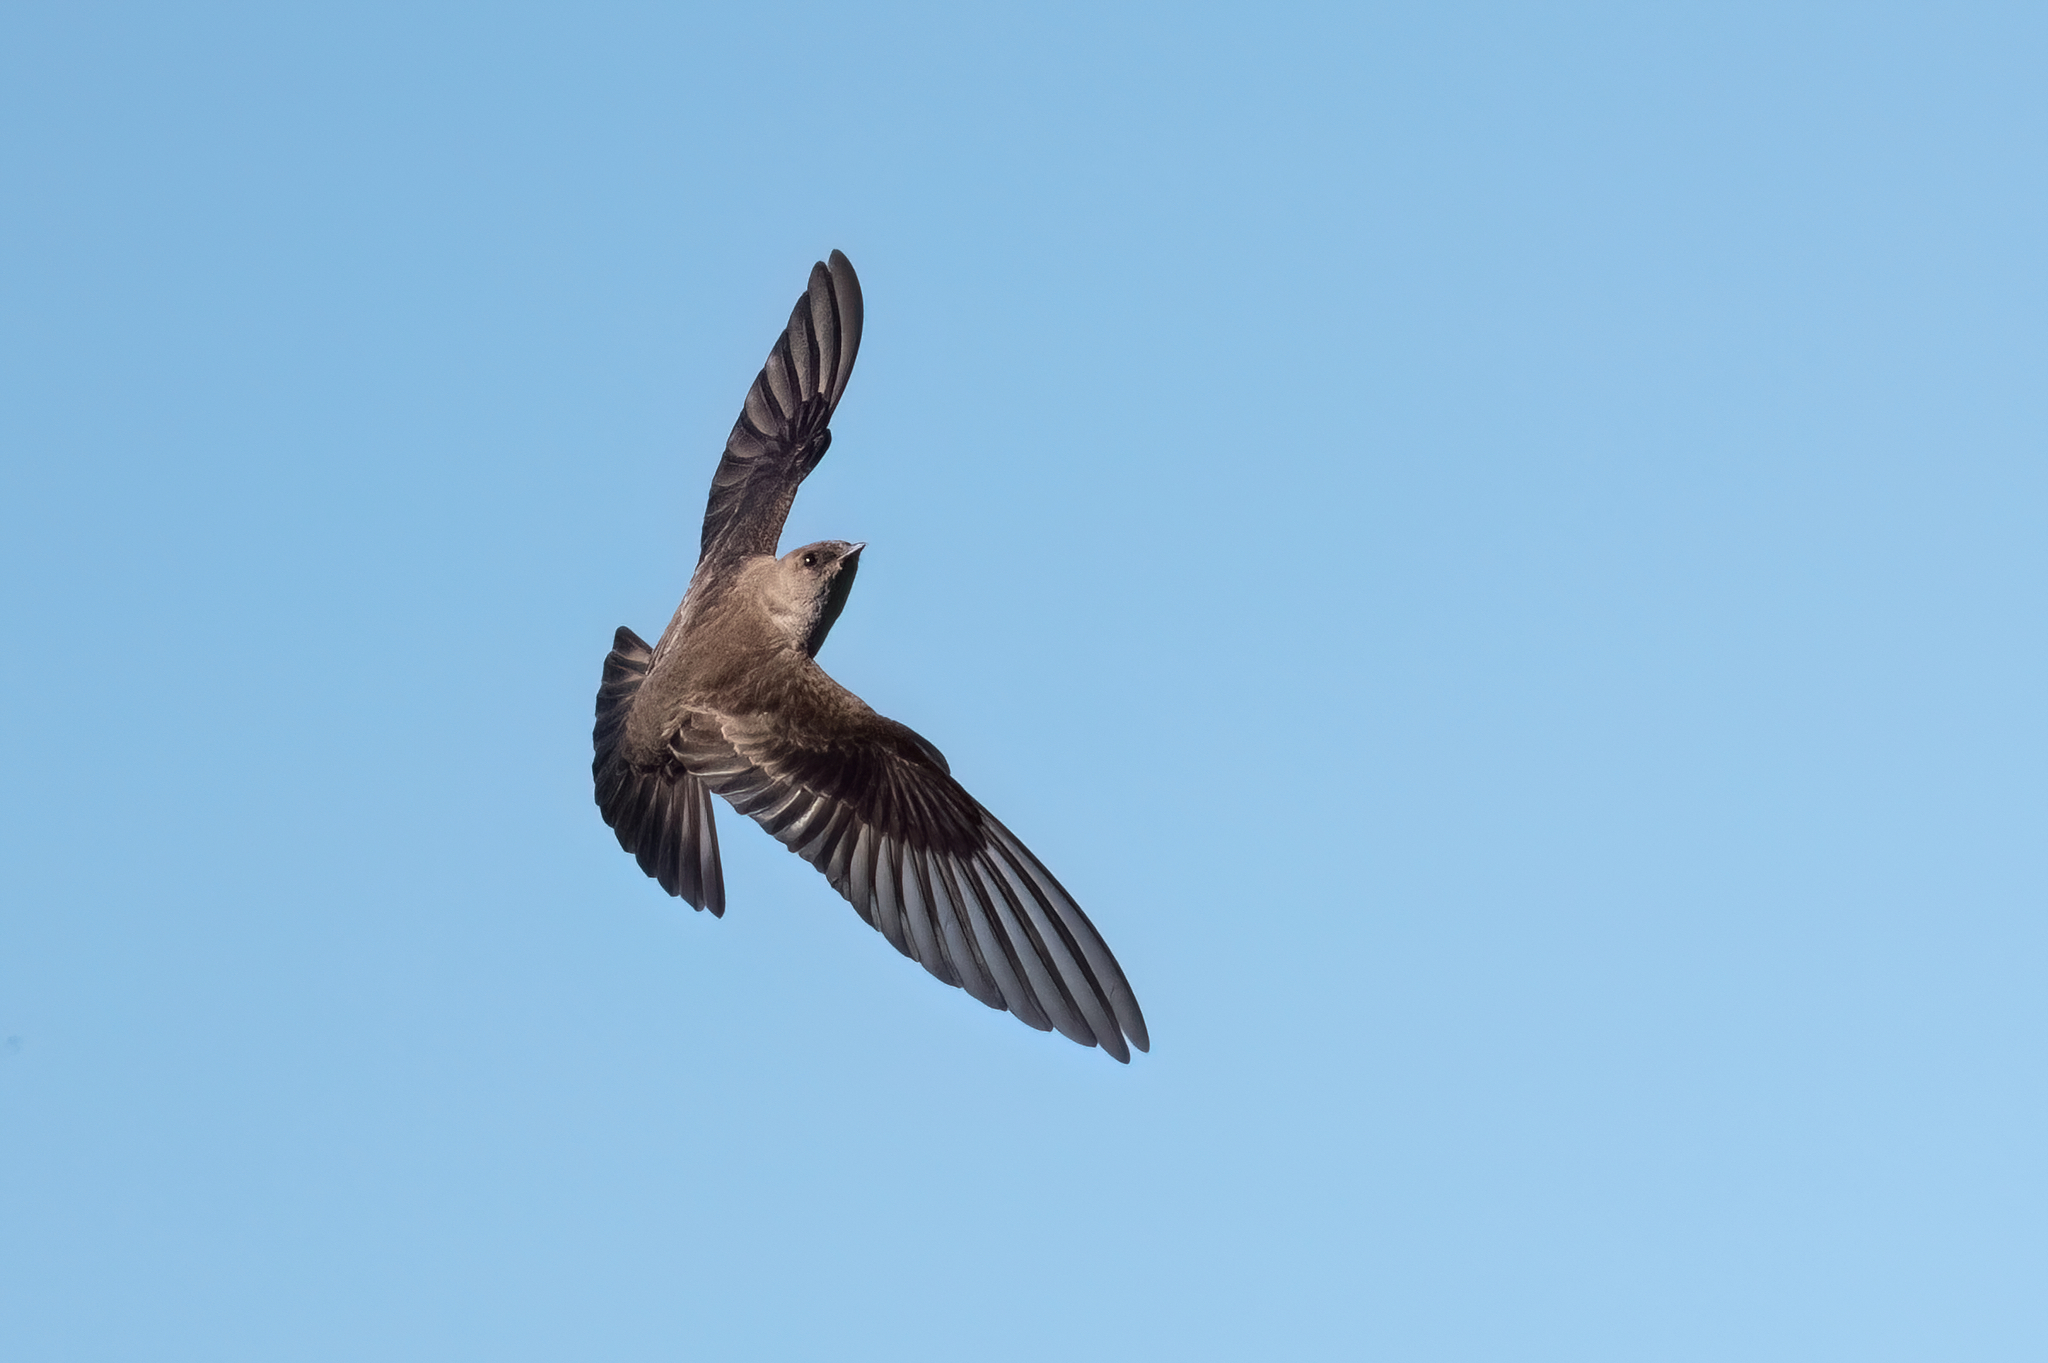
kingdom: Animalia
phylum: Chordata
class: Aves
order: Passeriformes
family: Hirundinidae
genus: Stelgidopteryx
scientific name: Stelgidopteryx serripennis
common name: Northern rough-winged swallow
